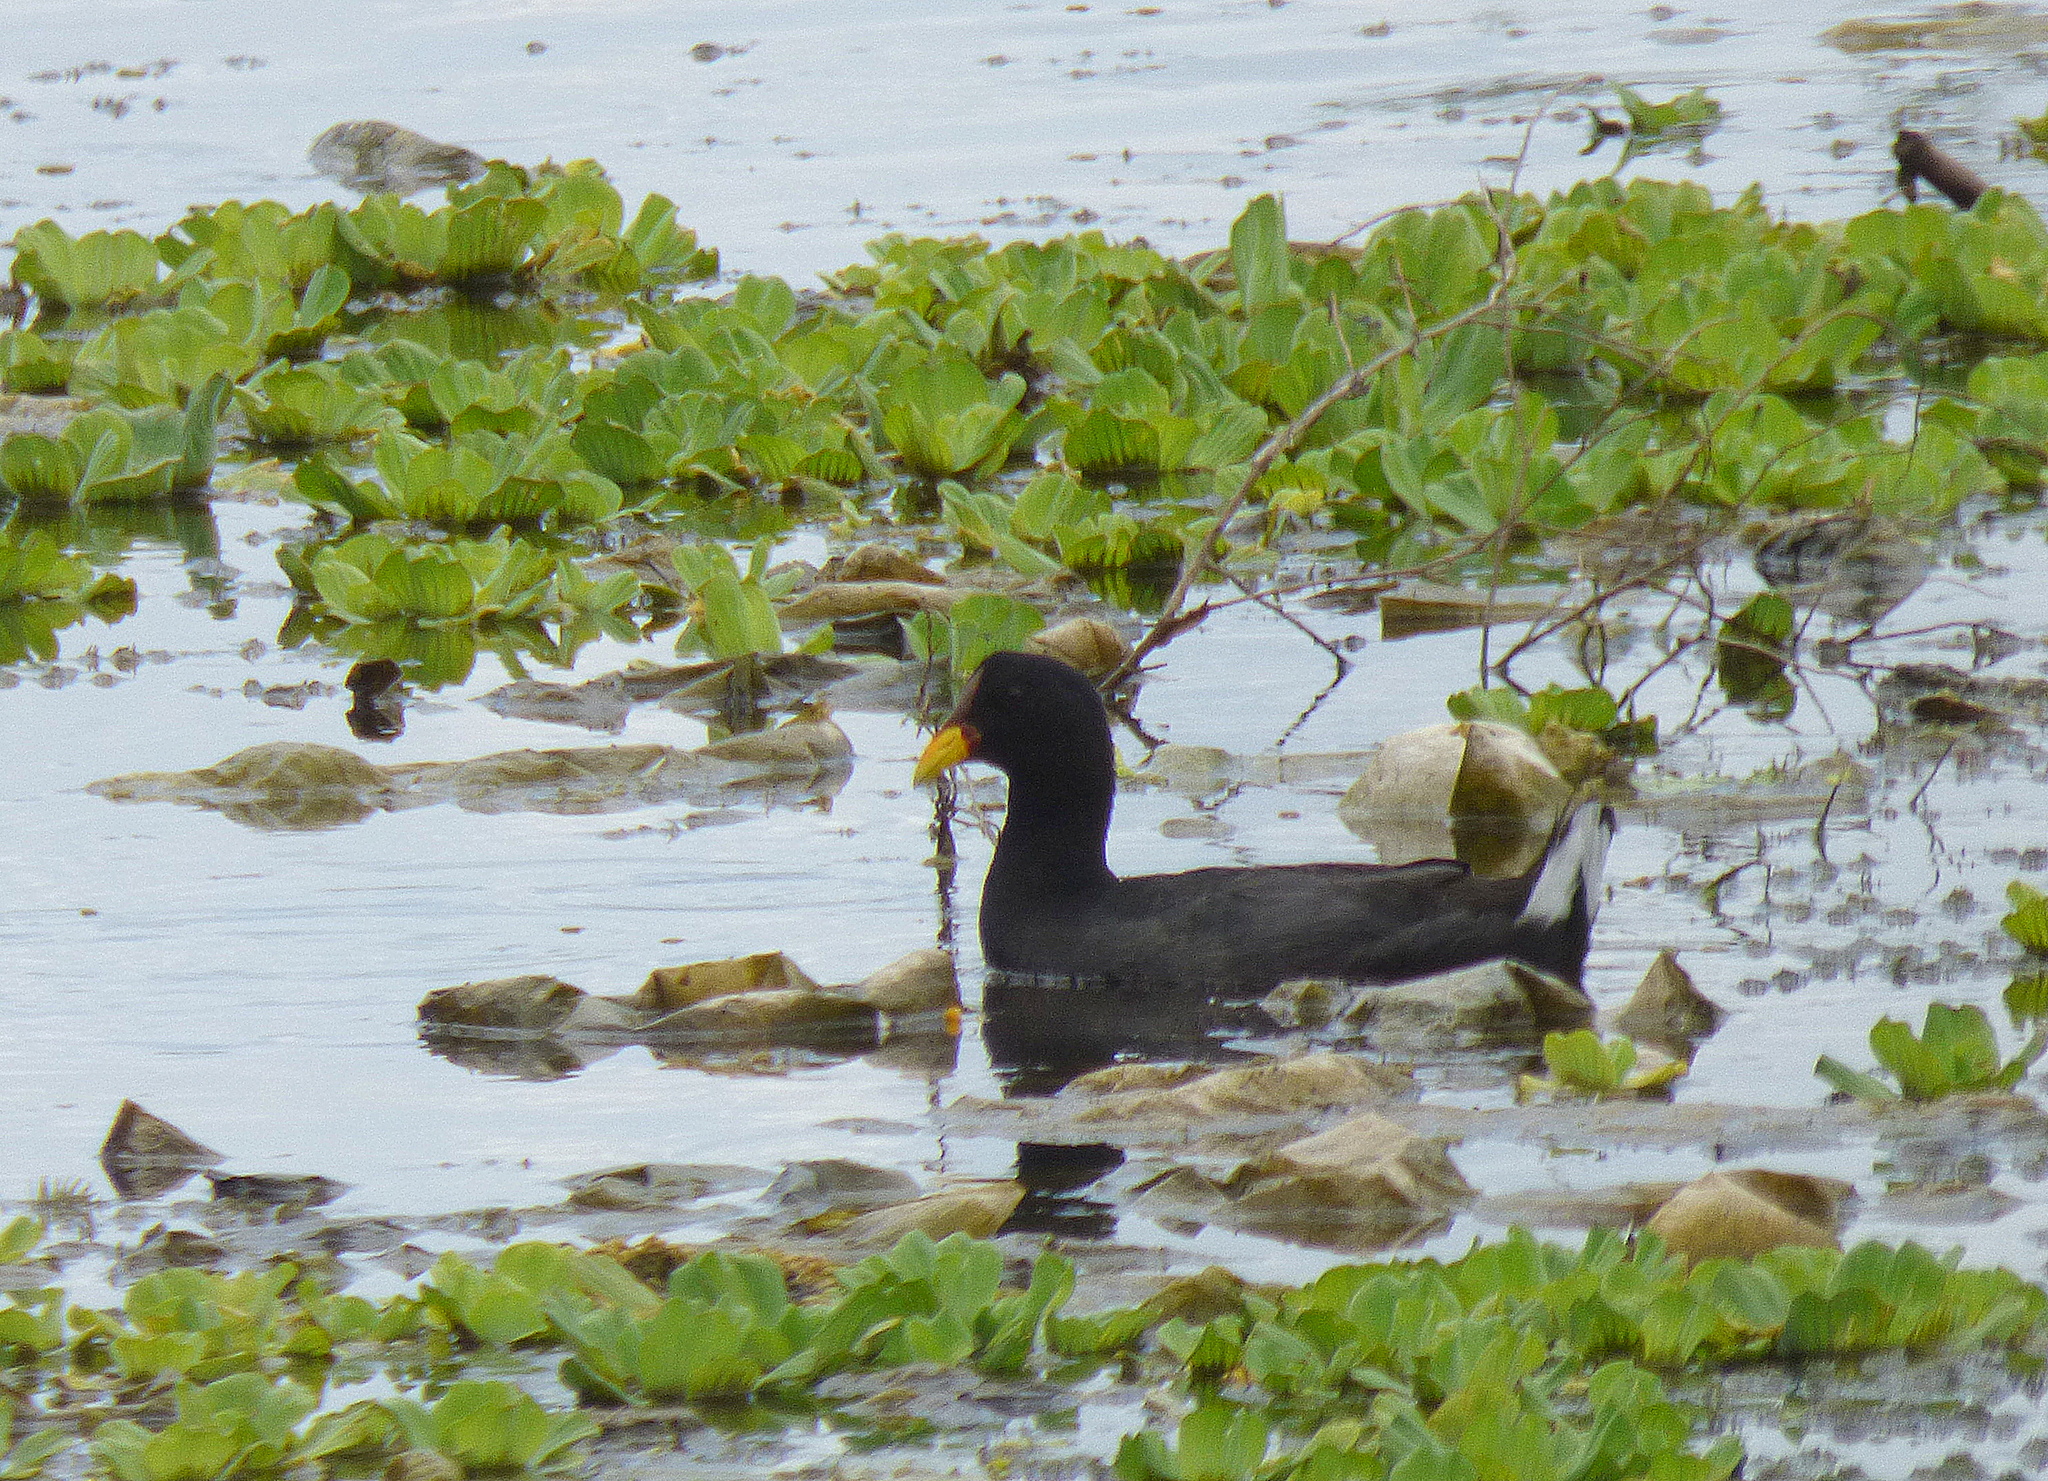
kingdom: Animalia
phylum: Chordata
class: Aves
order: Gruiformes
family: Rallidae
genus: Fulica
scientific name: Fulica rufifrons
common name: Red-fronted coot
